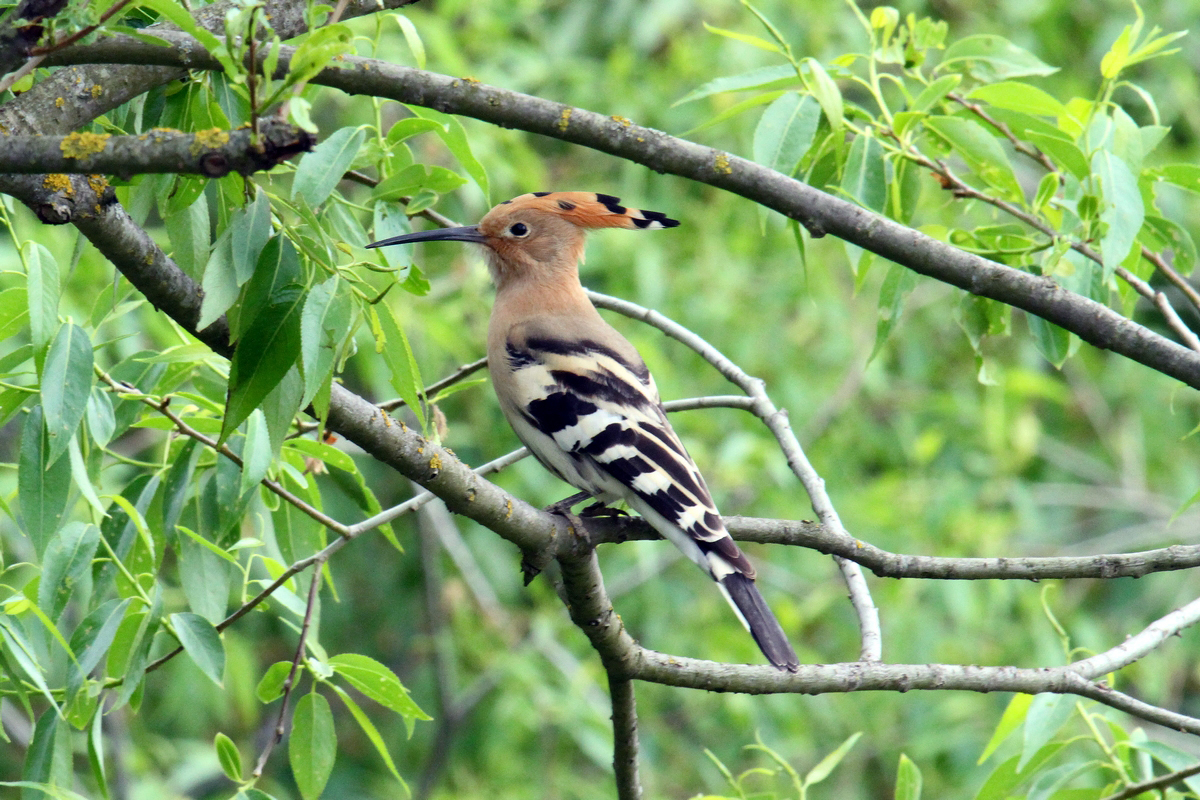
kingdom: Animalia
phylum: Chordata
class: Aves
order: Bucerotiformes
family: Upupidae
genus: Upupa
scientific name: Upupa epops
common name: Eurasian hoopoe
